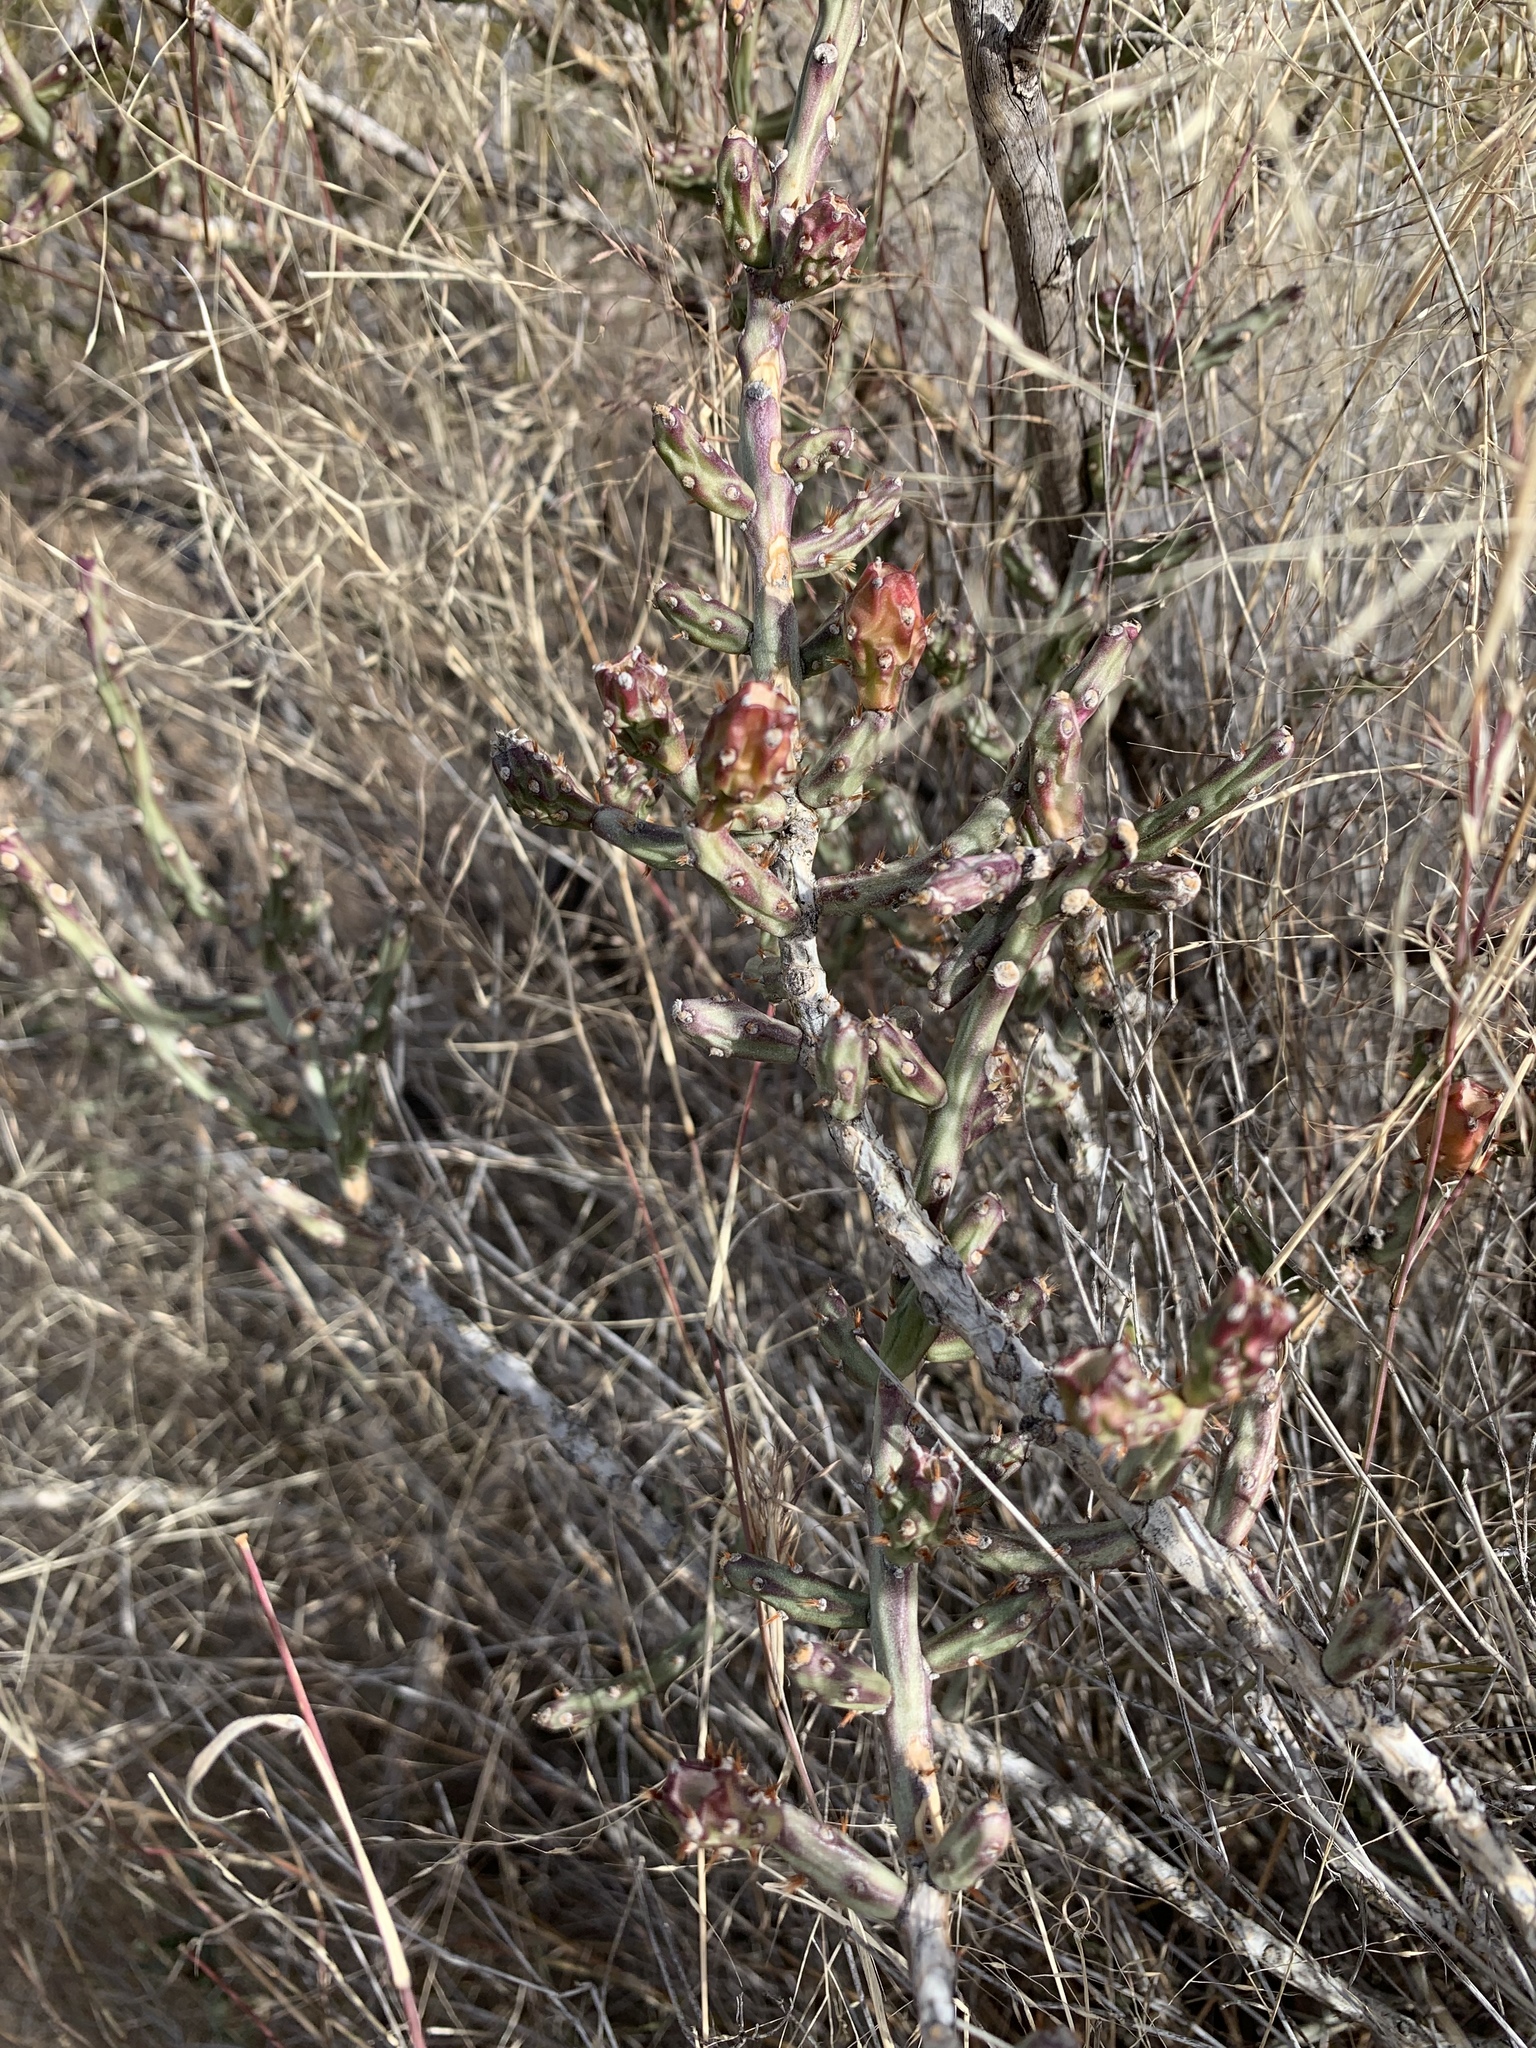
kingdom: Plantae
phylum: Tracheophyta
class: Magnoliopsida
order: Caryophyllales
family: Cactaceae
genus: Cylindropuntia
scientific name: Cylindropuntia leptocaulis
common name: Christmas cactus
